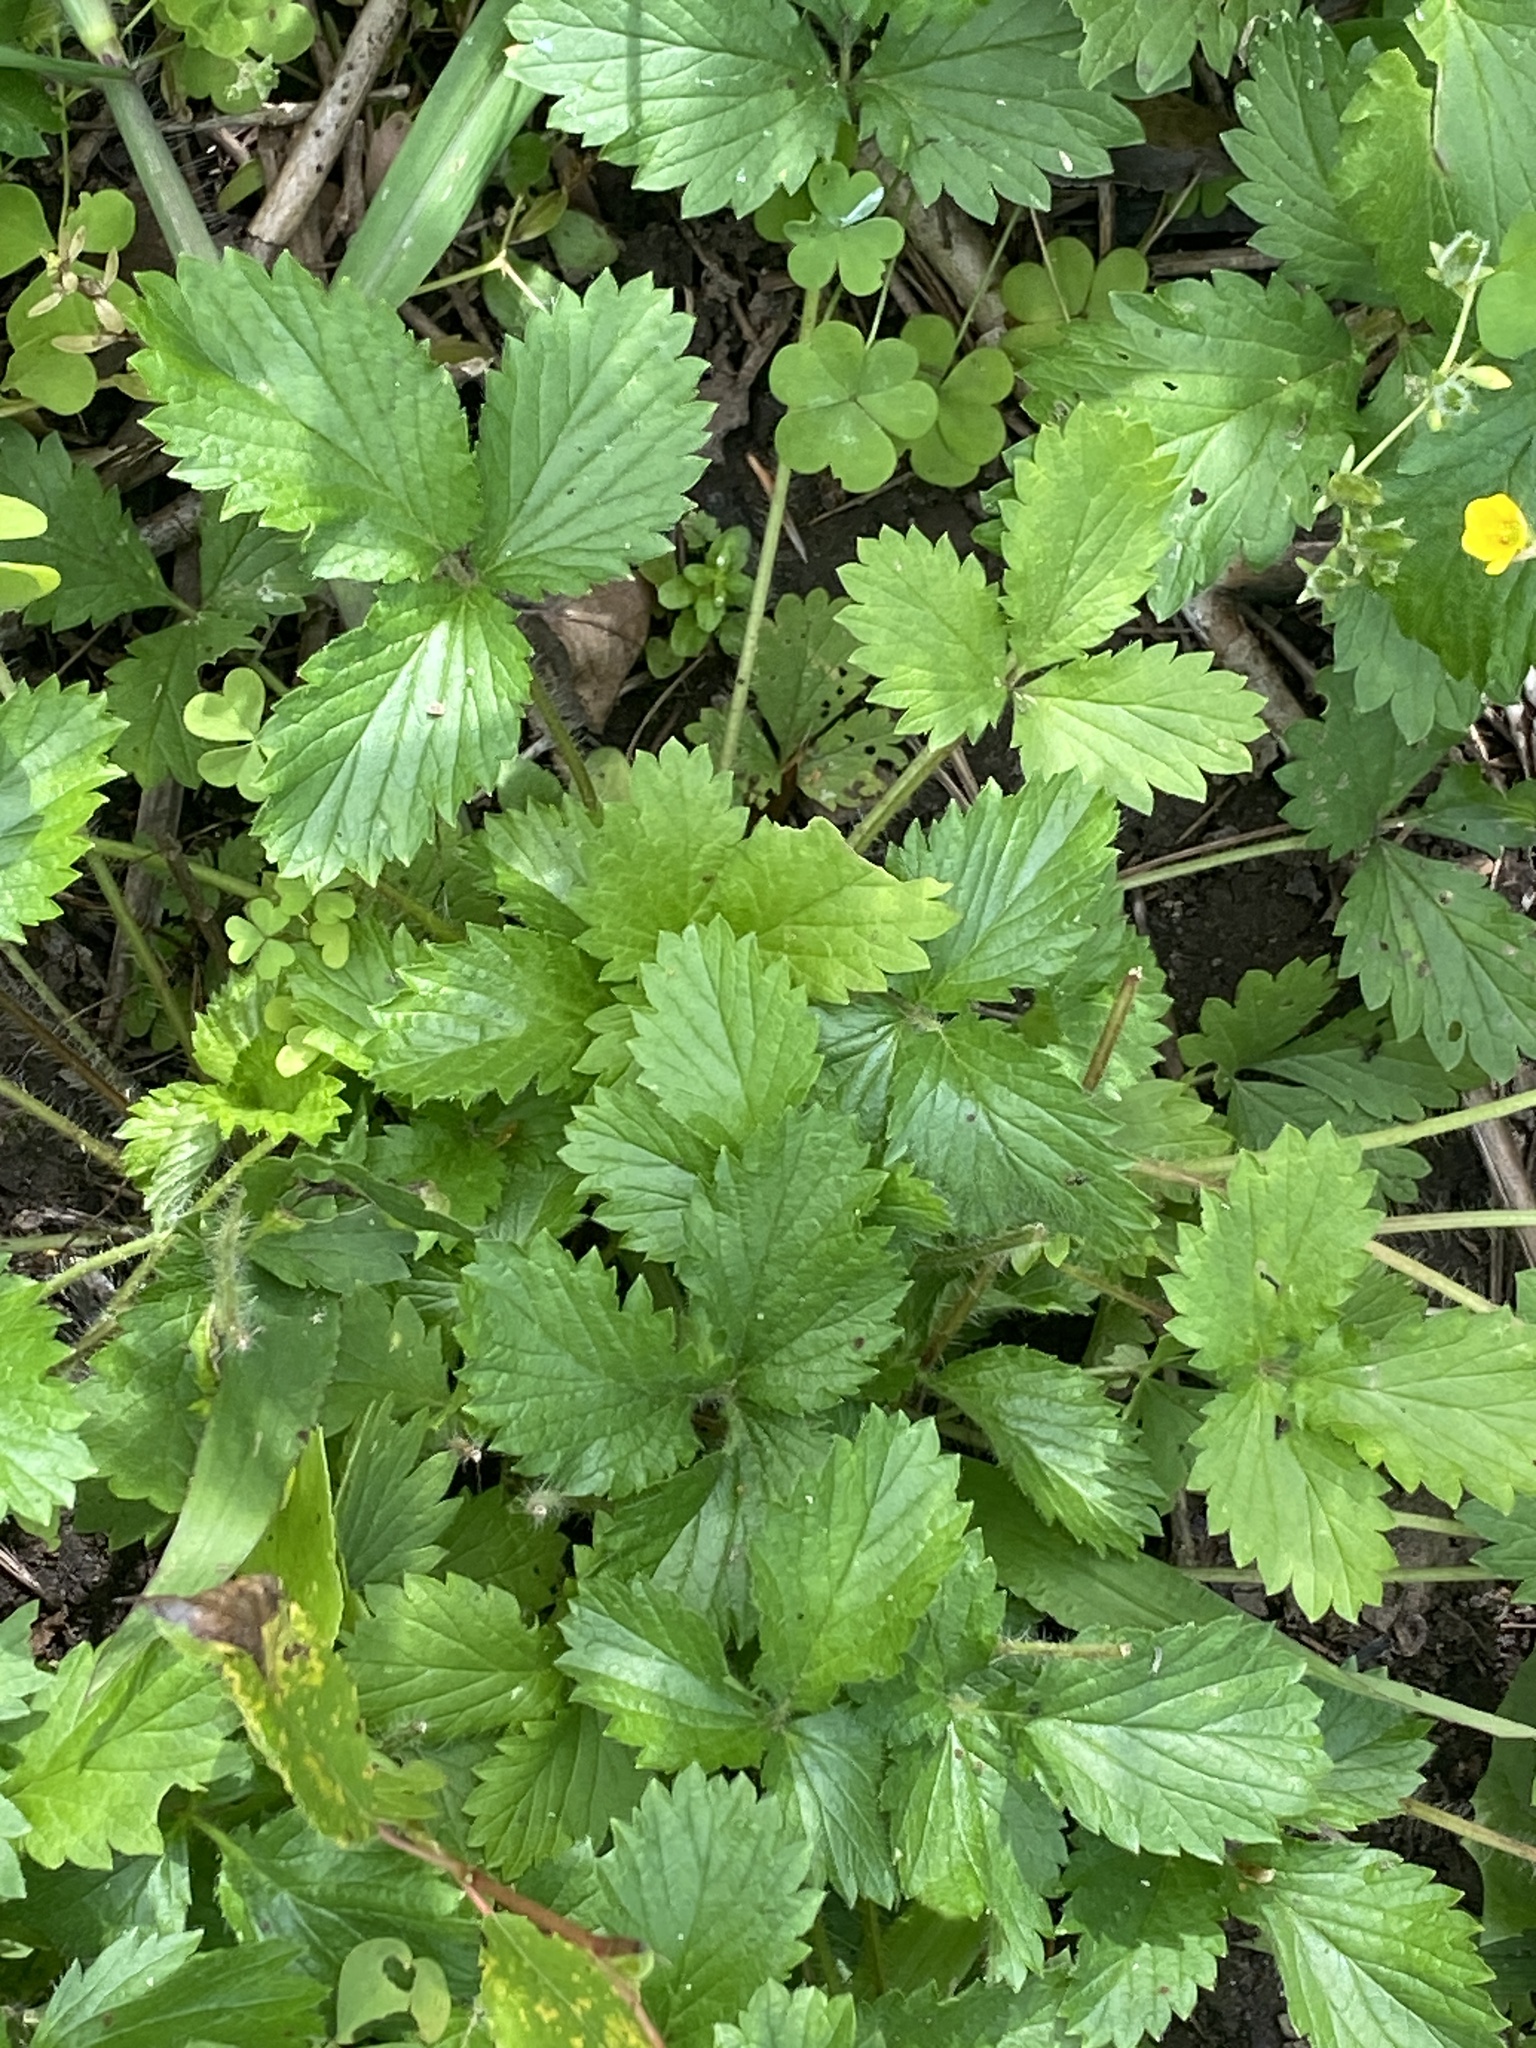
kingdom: Plantae
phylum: Tracheophyta
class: Magnoliopsida
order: Rosales
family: Rosaceae
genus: Potentilla
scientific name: Potentilla norvegica
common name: Ternate-leaved cinquefoil
